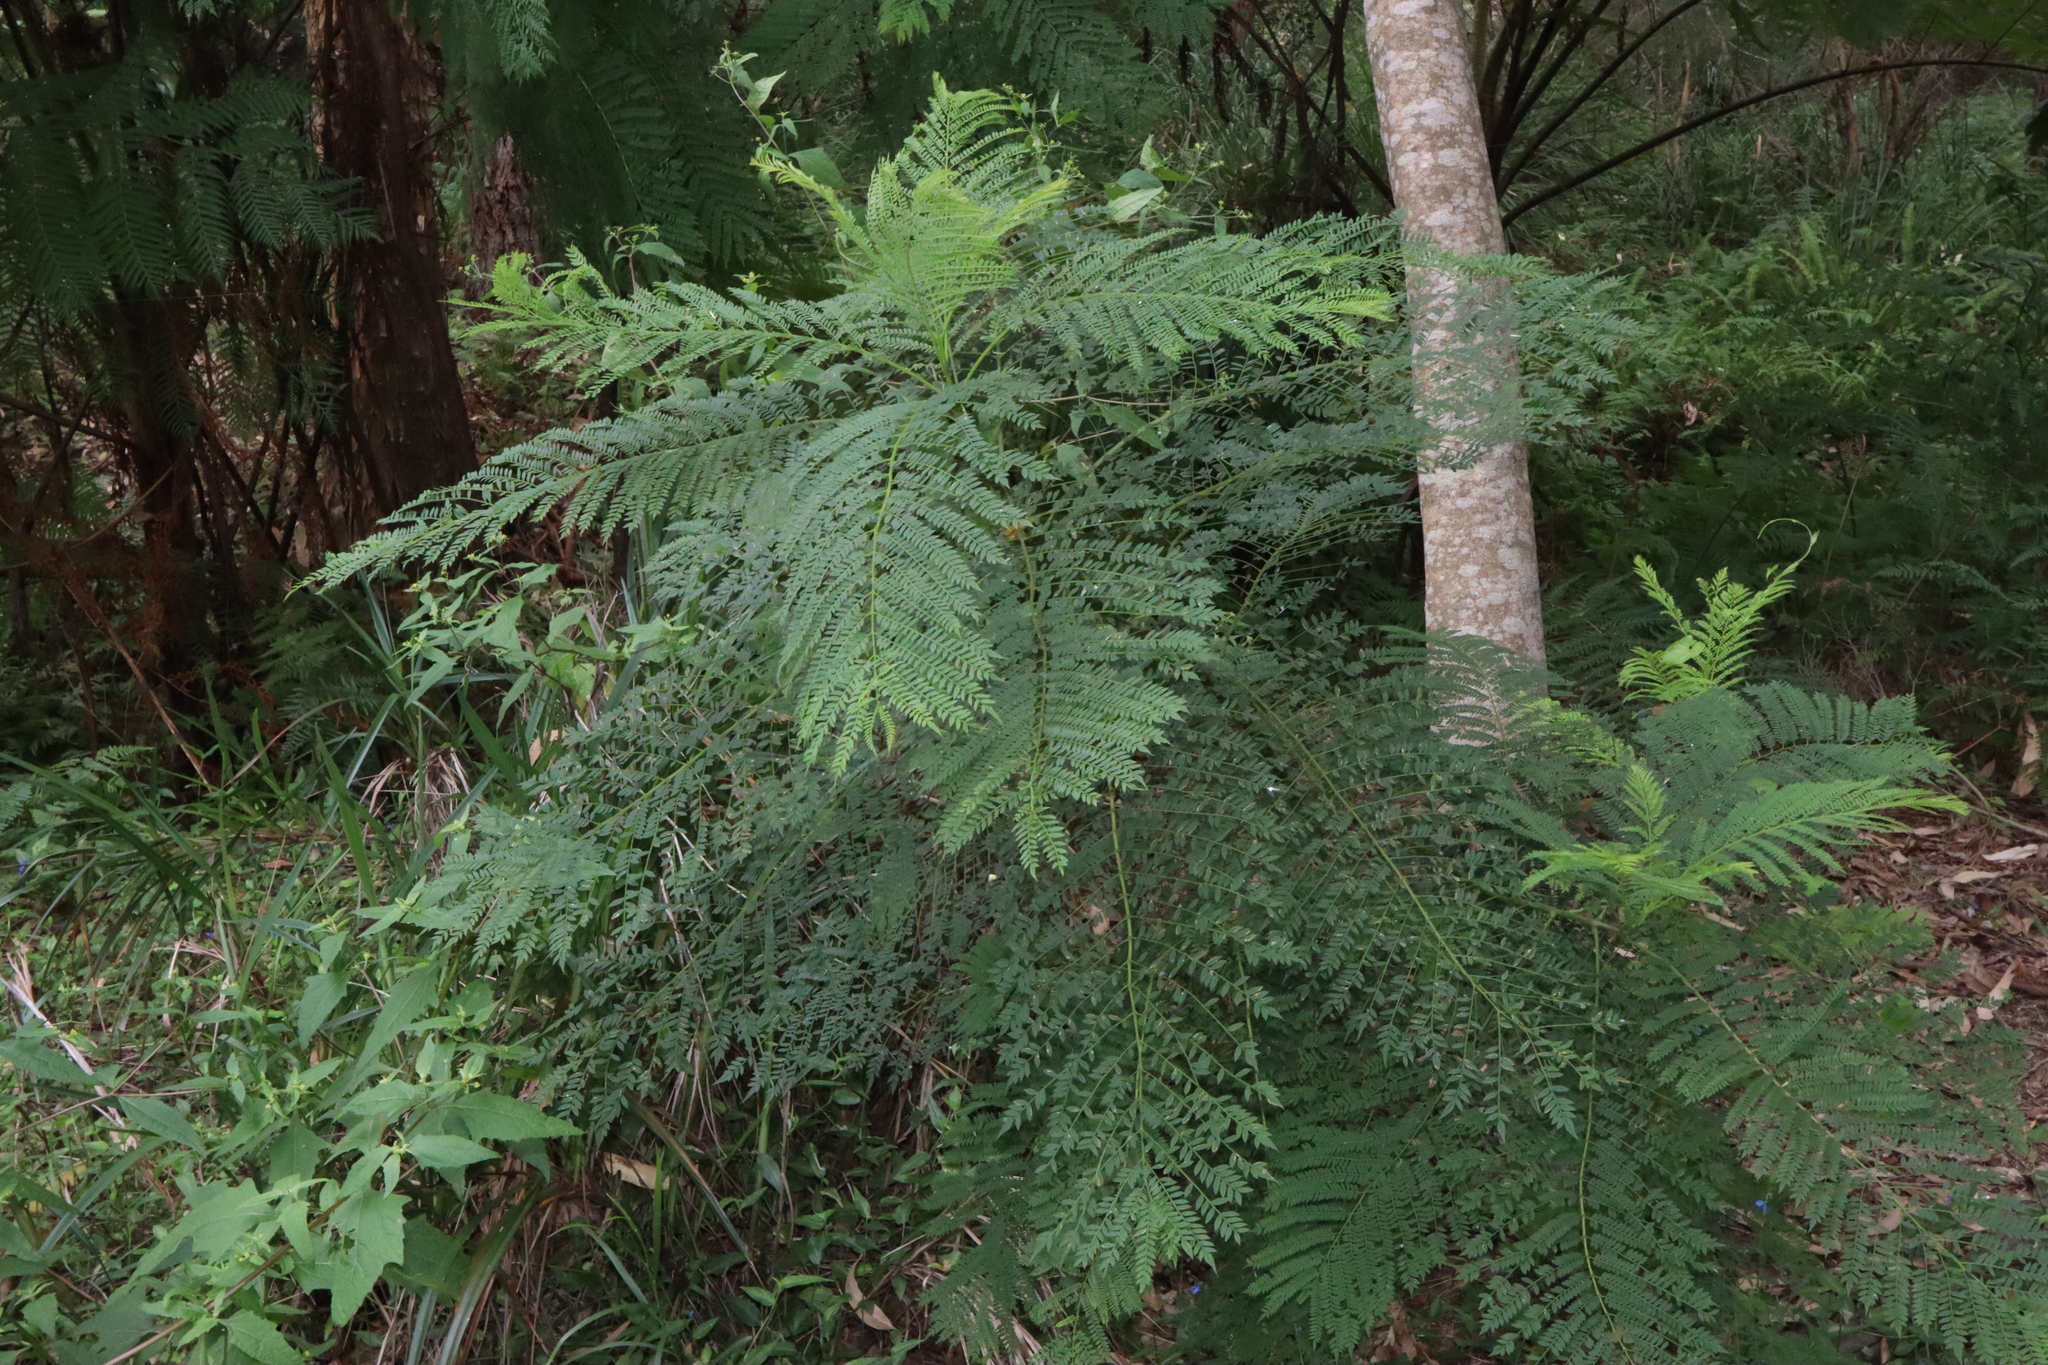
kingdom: Plantae
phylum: Tracheophyta
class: Magnoliopsida
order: Lamiales
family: Bignoniaceae
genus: Jacaranda
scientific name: Jacaranda mimosifolia
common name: Black poui
